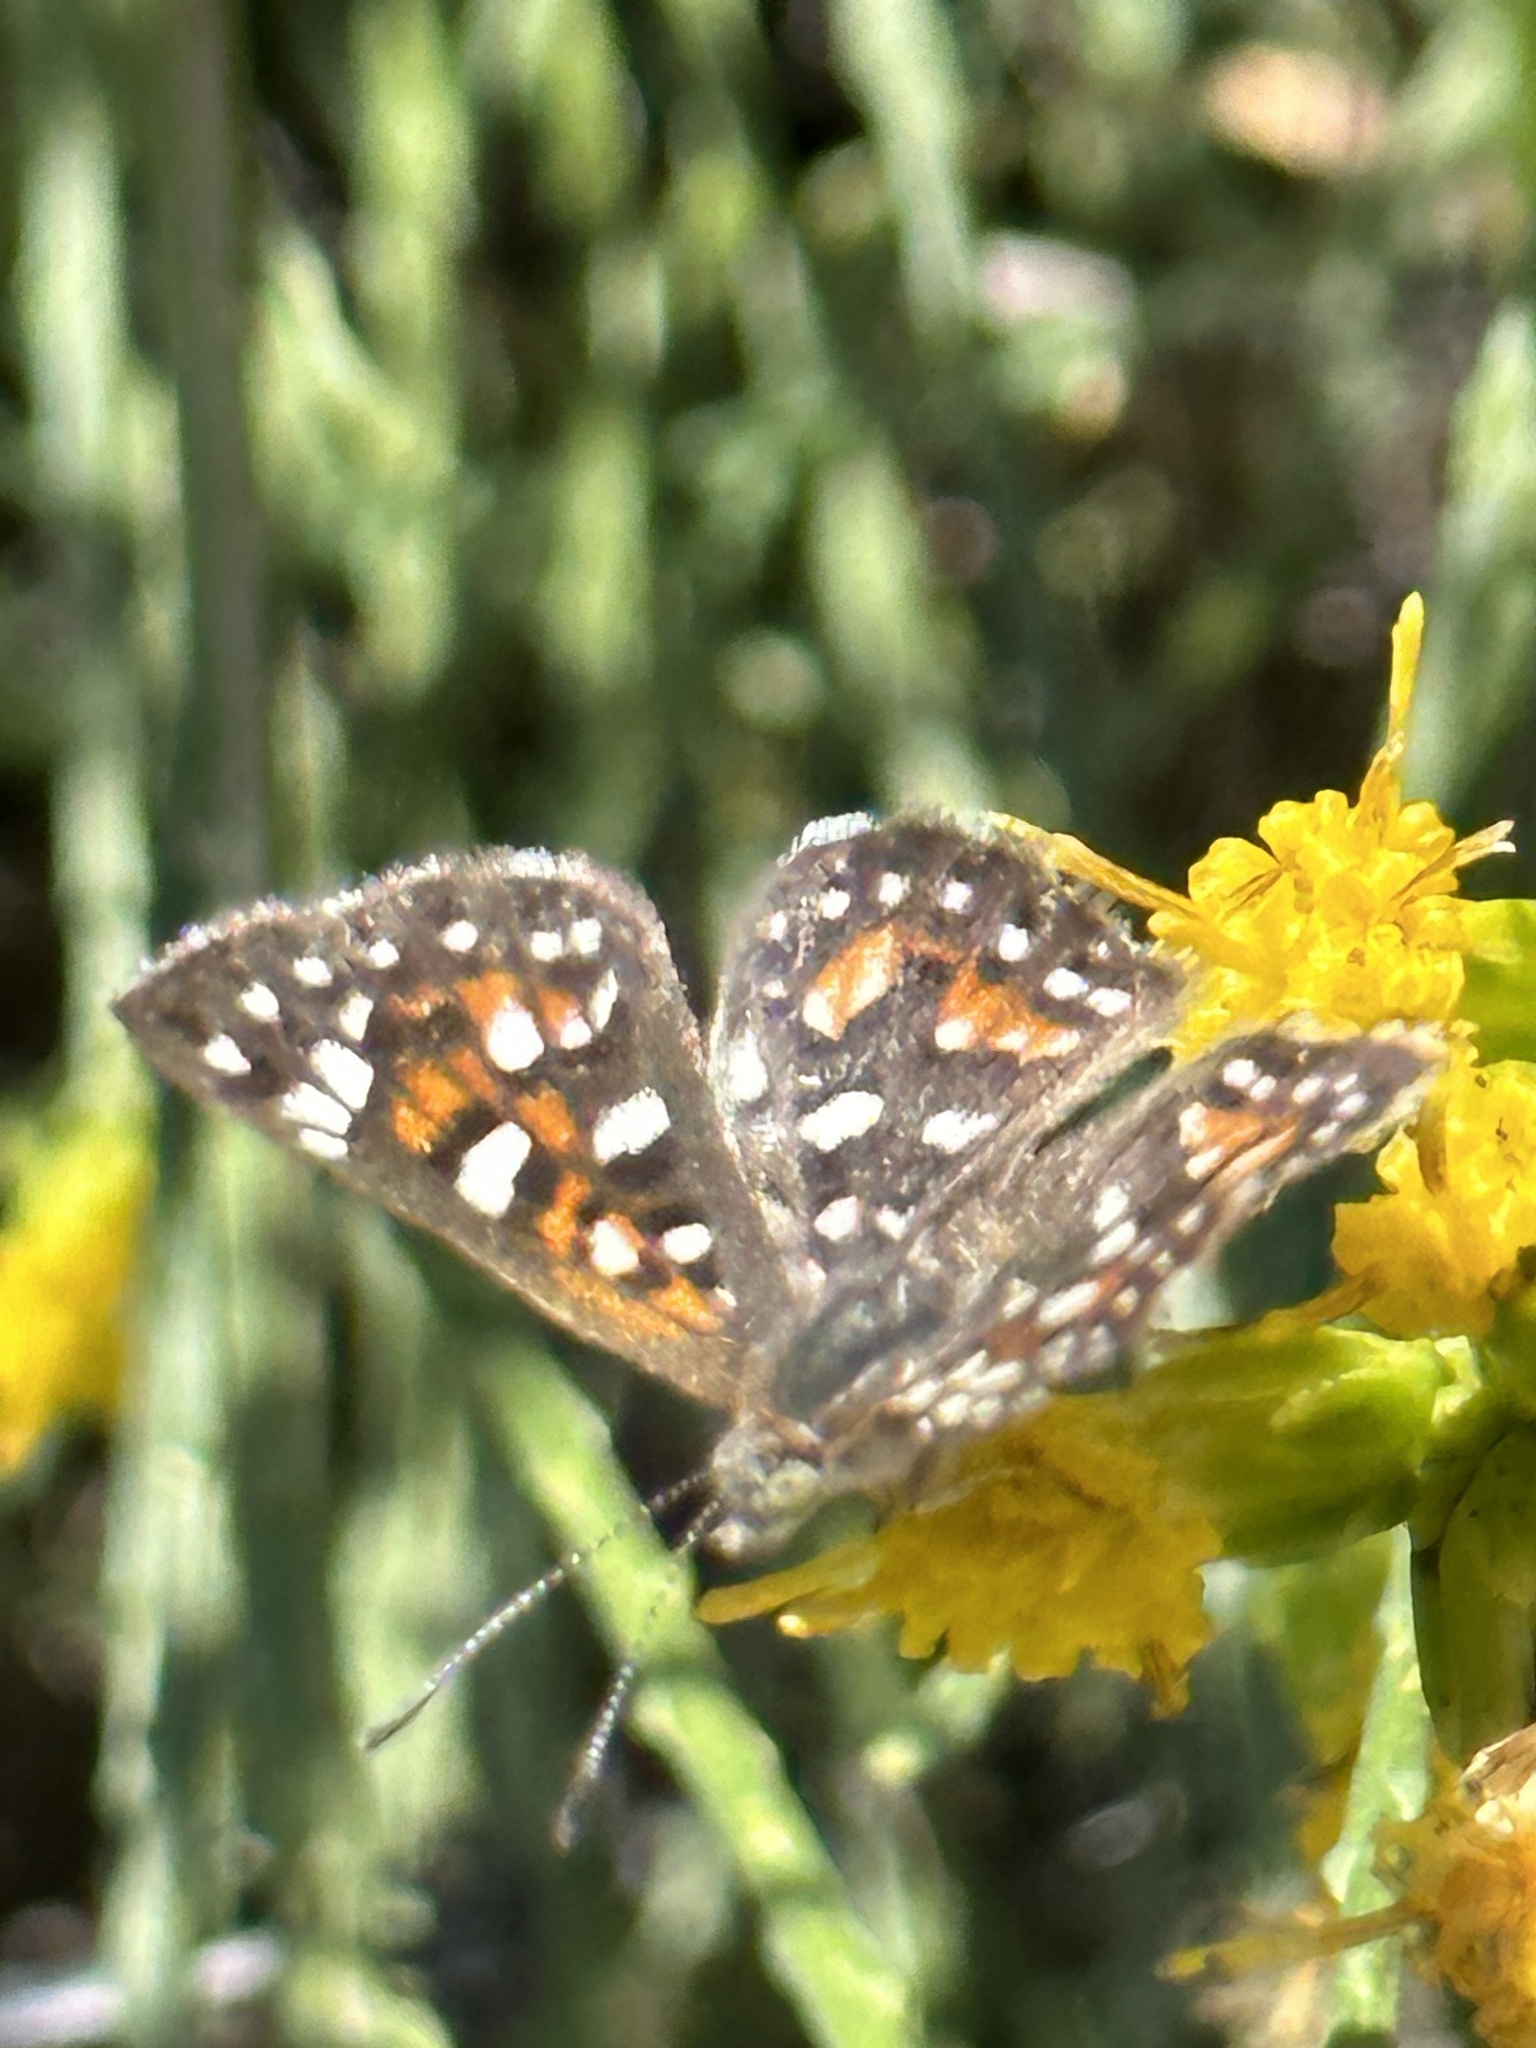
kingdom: Animalia
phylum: Arthropoda
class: Insecta
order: Lepidoptera
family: Riodinidae
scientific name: Riodinidae
